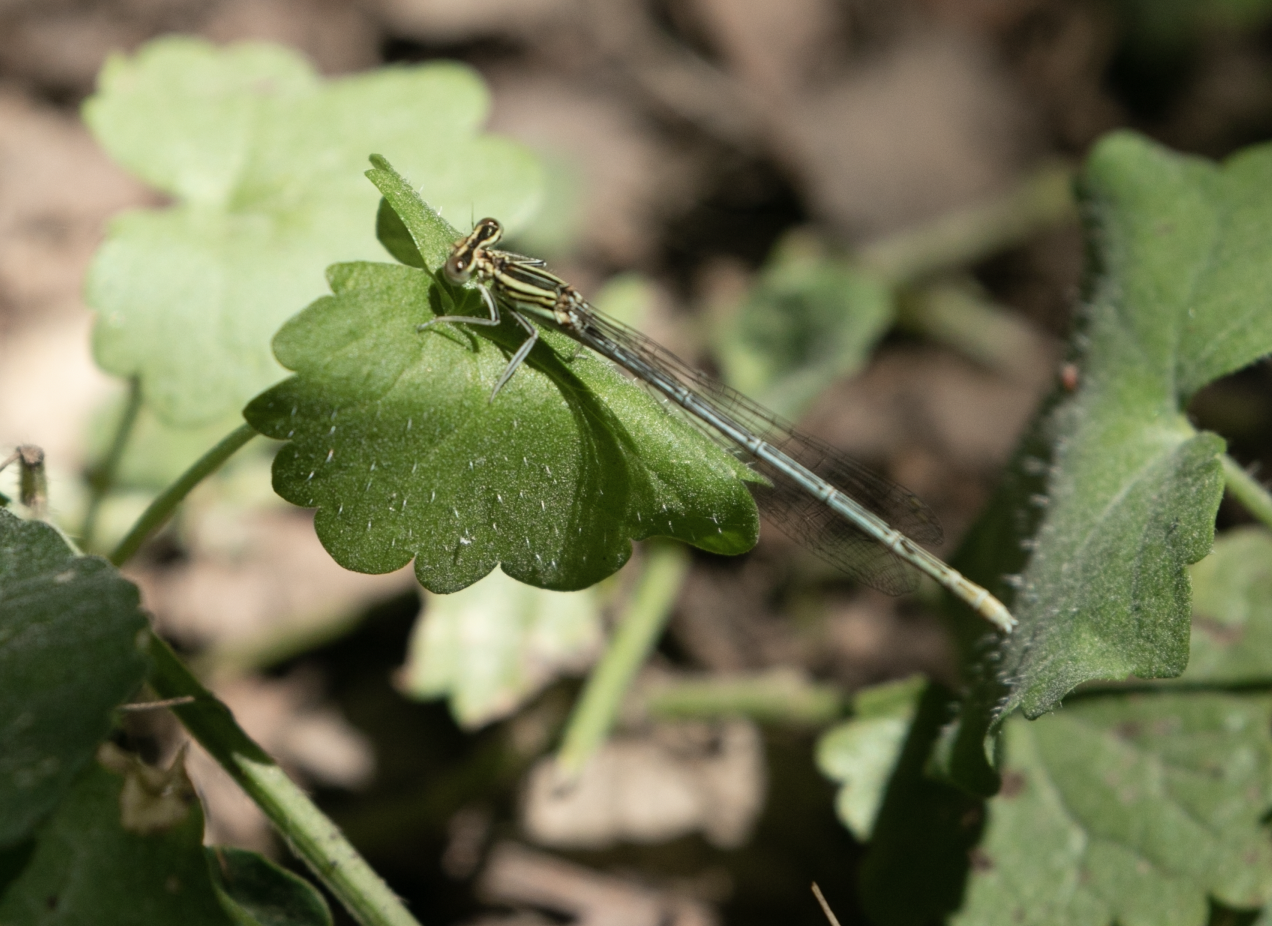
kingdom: Animalia
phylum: Arthropoda
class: Insecta
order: Odonata
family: Platycnemididae
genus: Platycnemis
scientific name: Platycnemis pennipes
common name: White-legged damselfly
